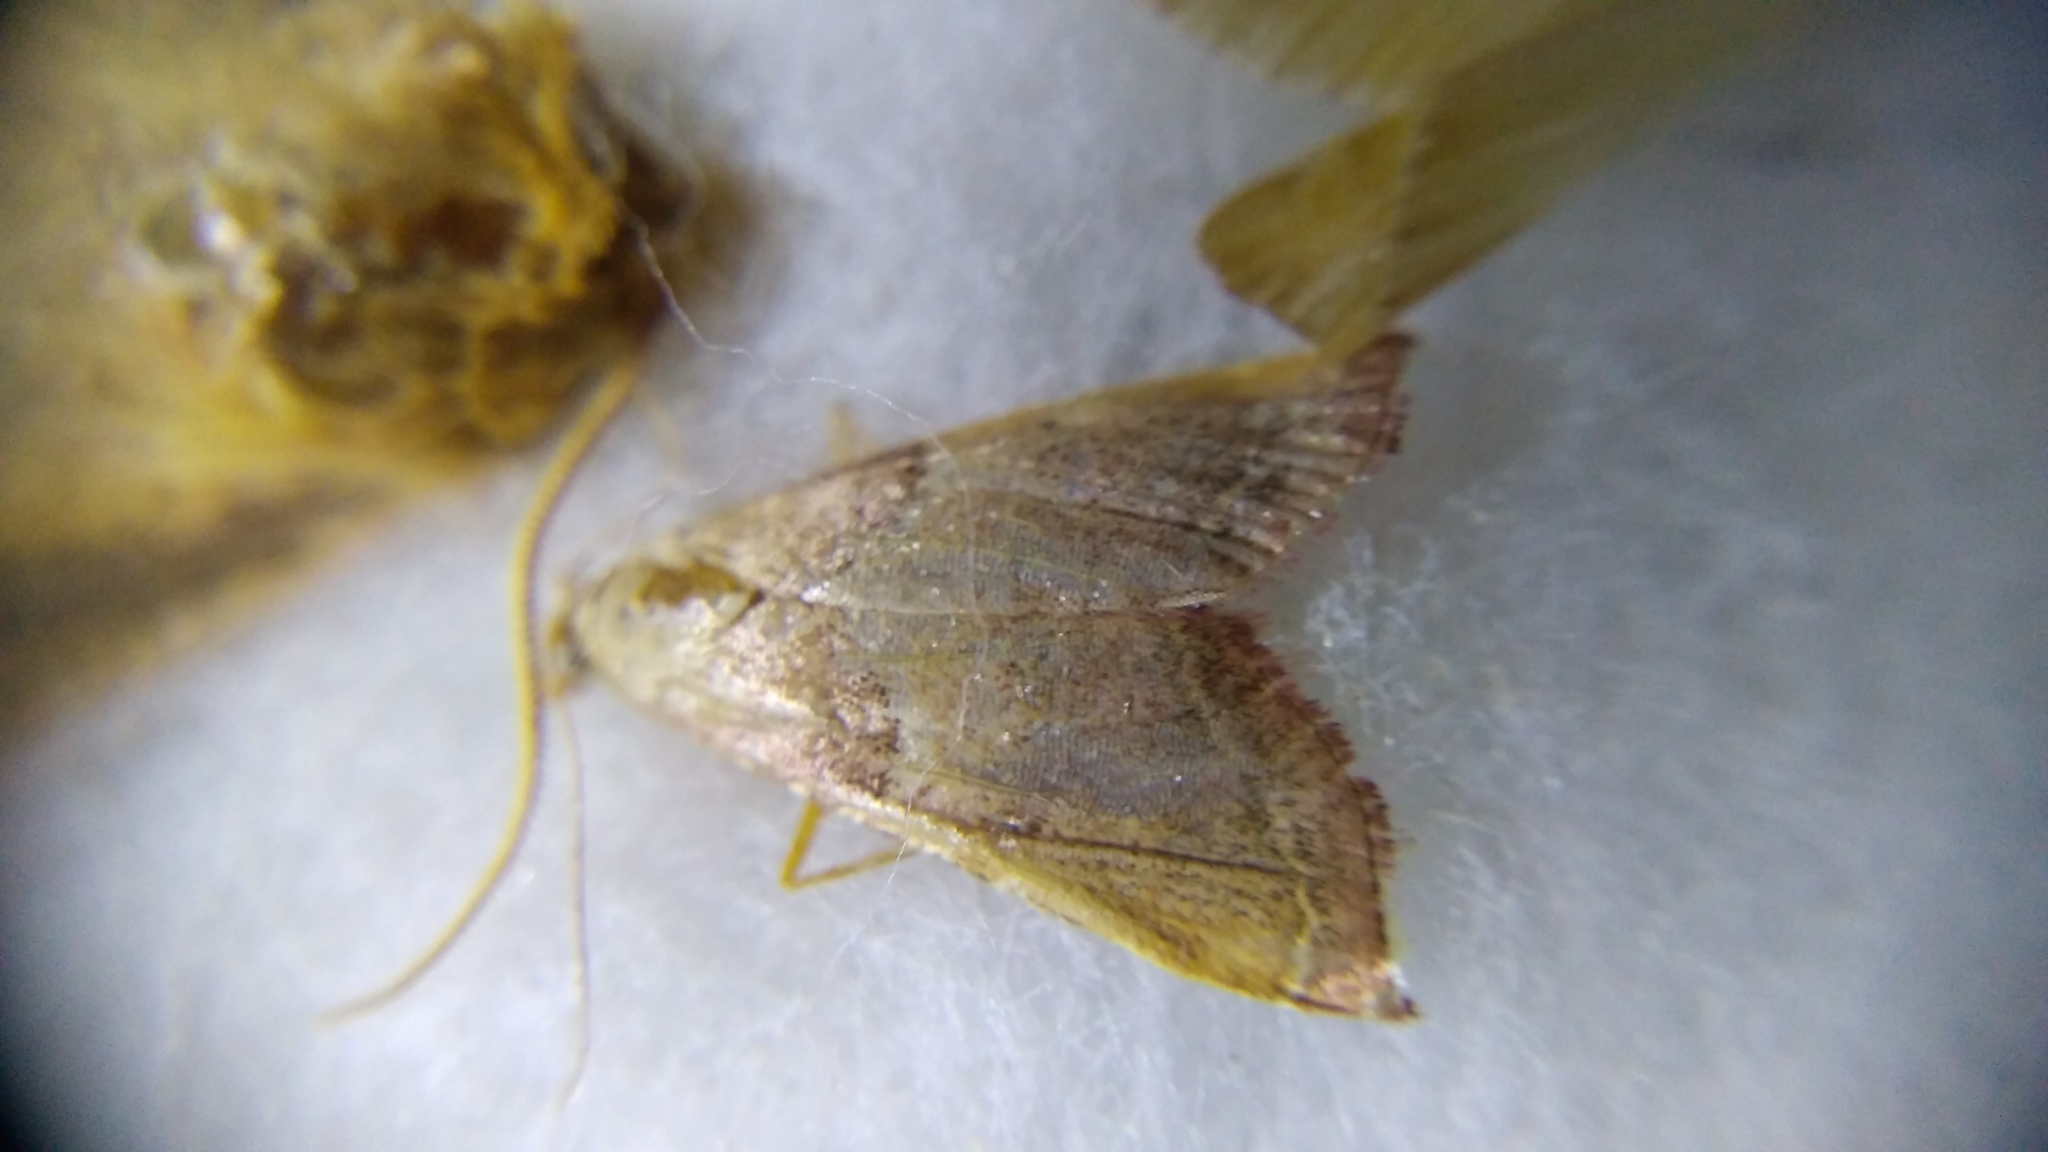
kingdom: Animalia
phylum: Arthropoda
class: Insecta
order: Lepidoptera
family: Pyralidae
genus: Endotricha
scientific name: Endotricha flammealis
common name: Rosy tabby
